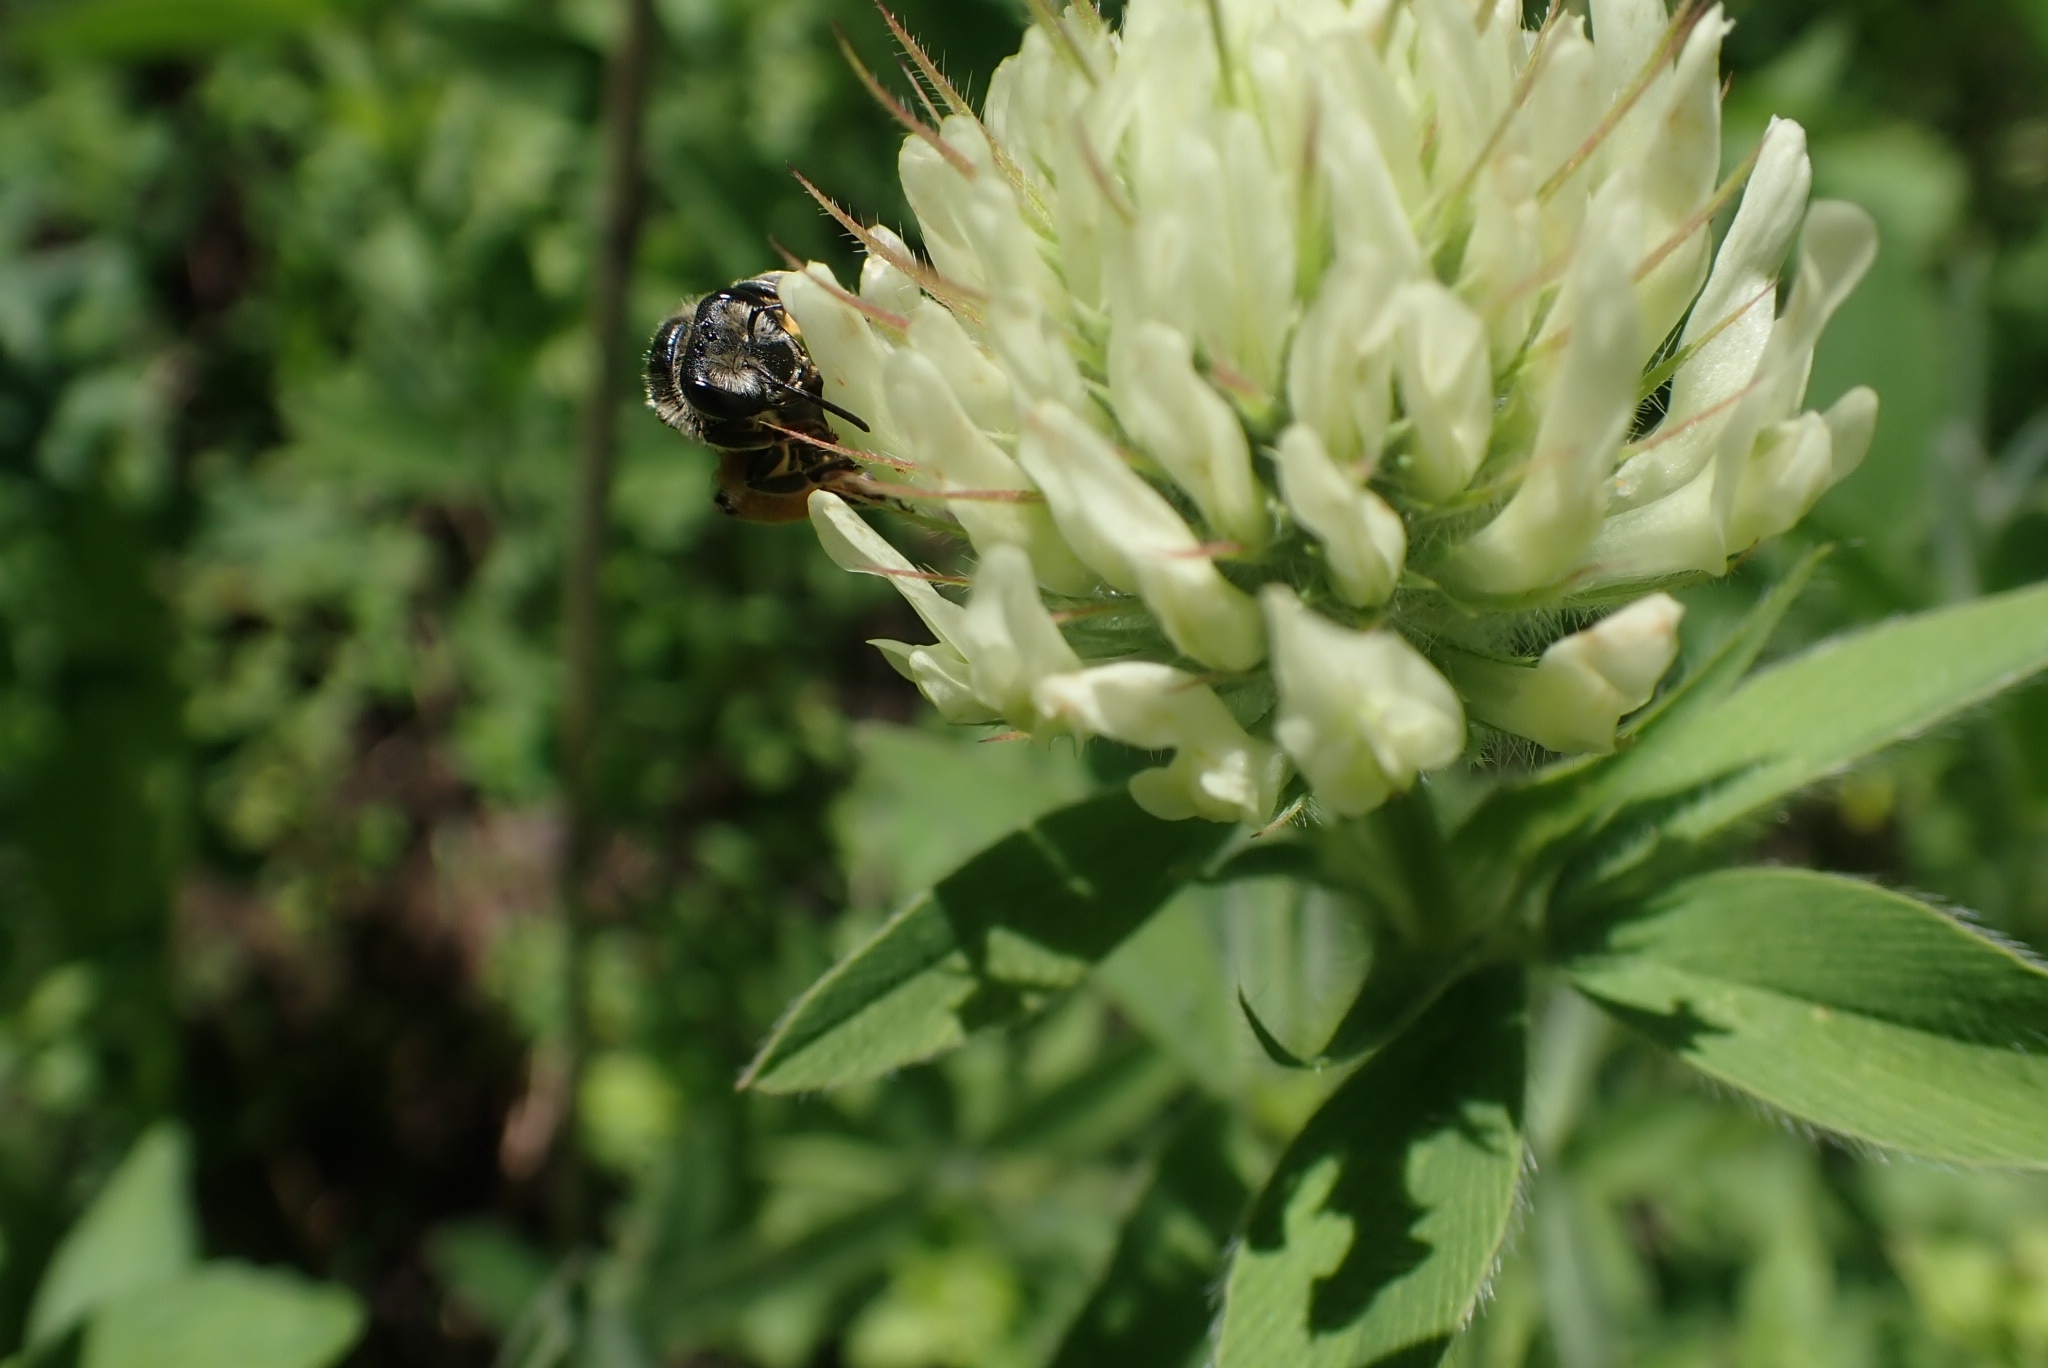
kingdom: Plantae
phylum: Tracheophyta
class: Magnoliopsida
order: Fabales
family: Fabaceae
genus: Trifolium
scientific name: Trifolium lupinaster
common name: Lupine clover
